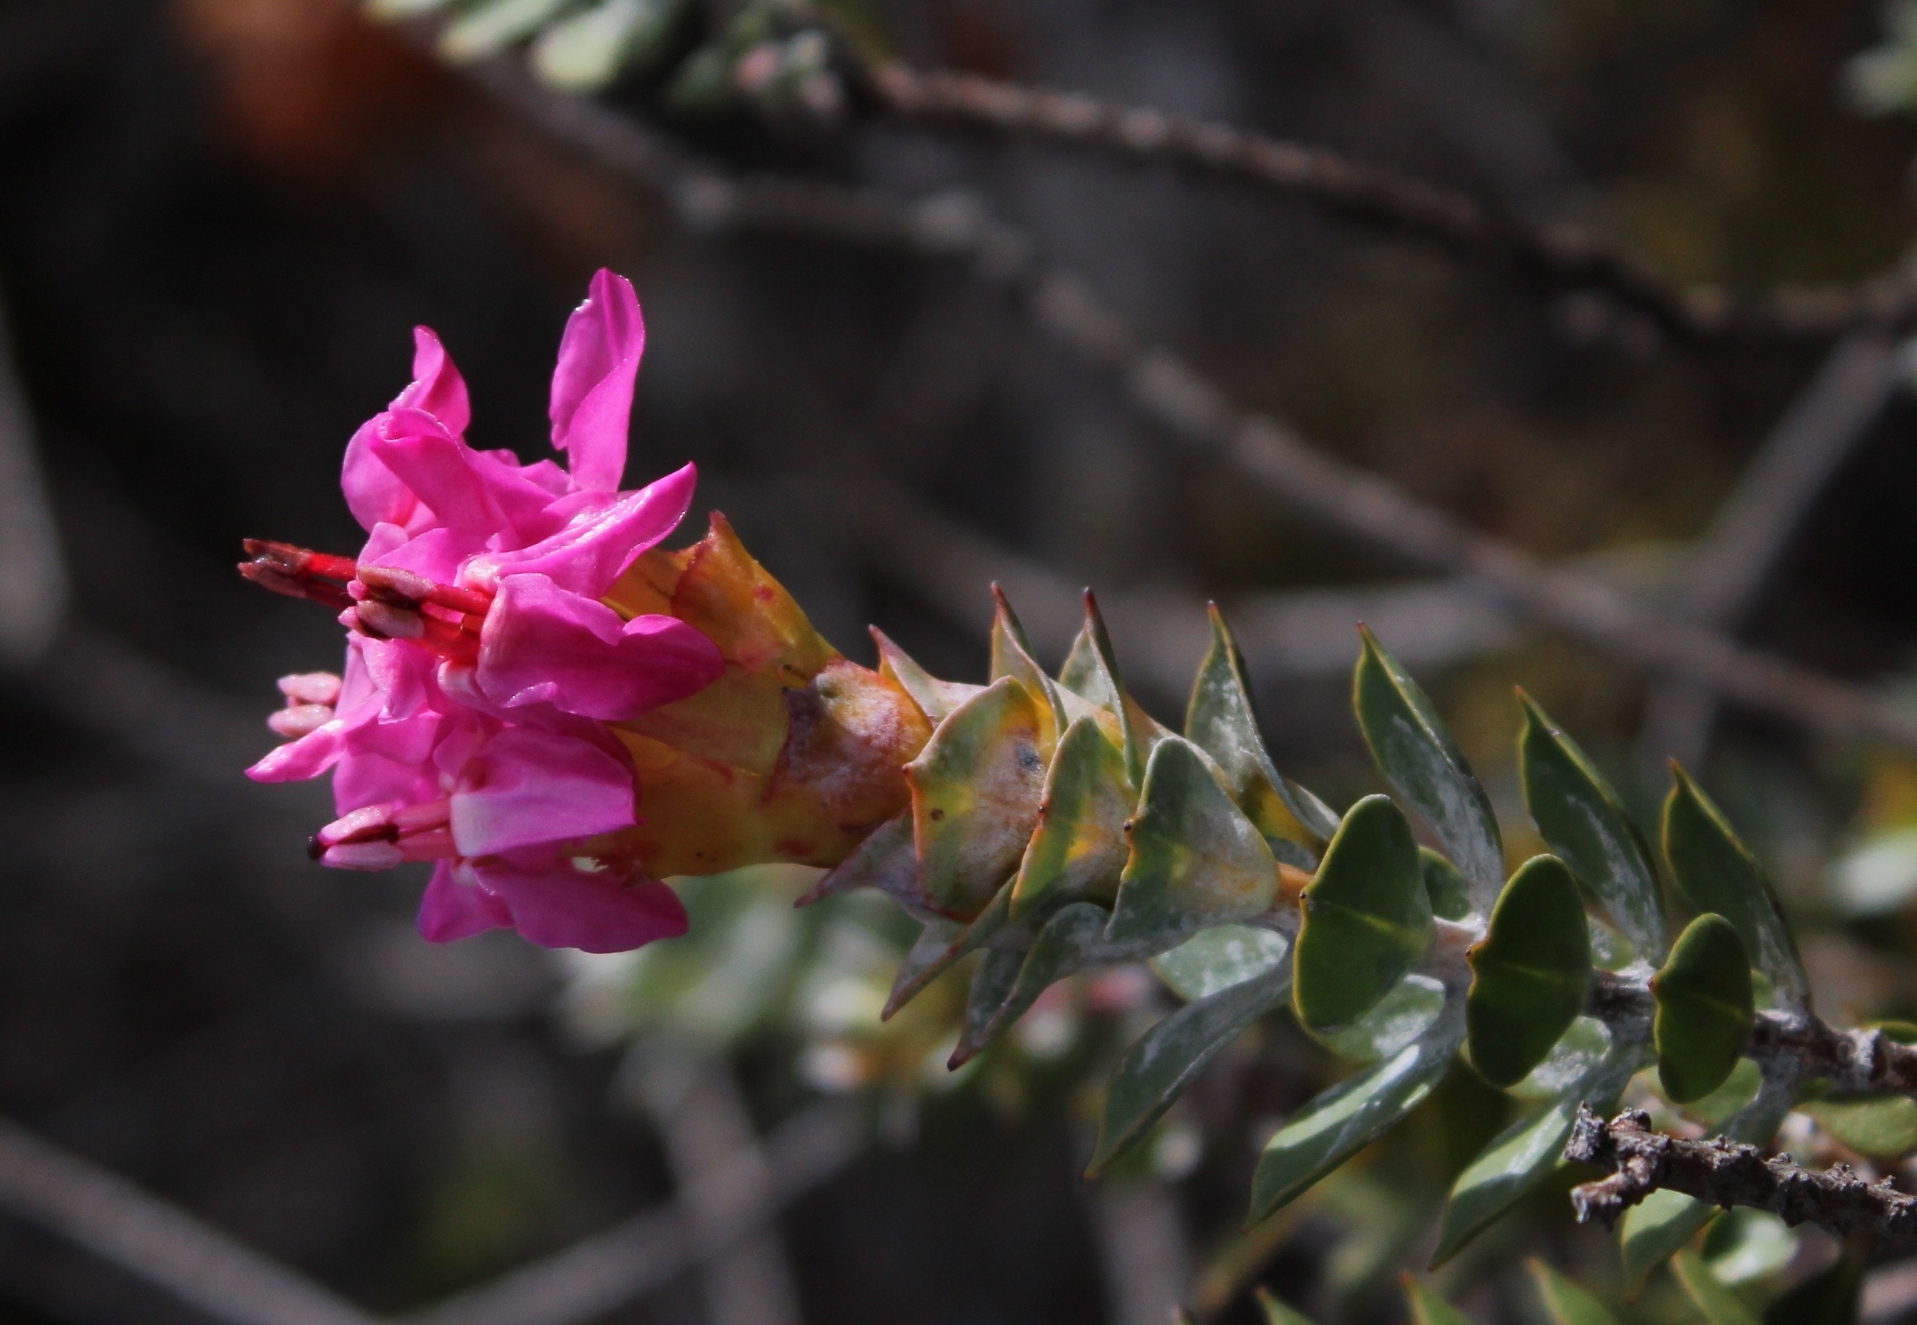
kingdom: Plantae
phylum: Tracheophyta
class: Magnoliopsida
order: Myrtales
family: Penaeaceae
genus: Saltera
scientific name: Saltera sarcocolla
